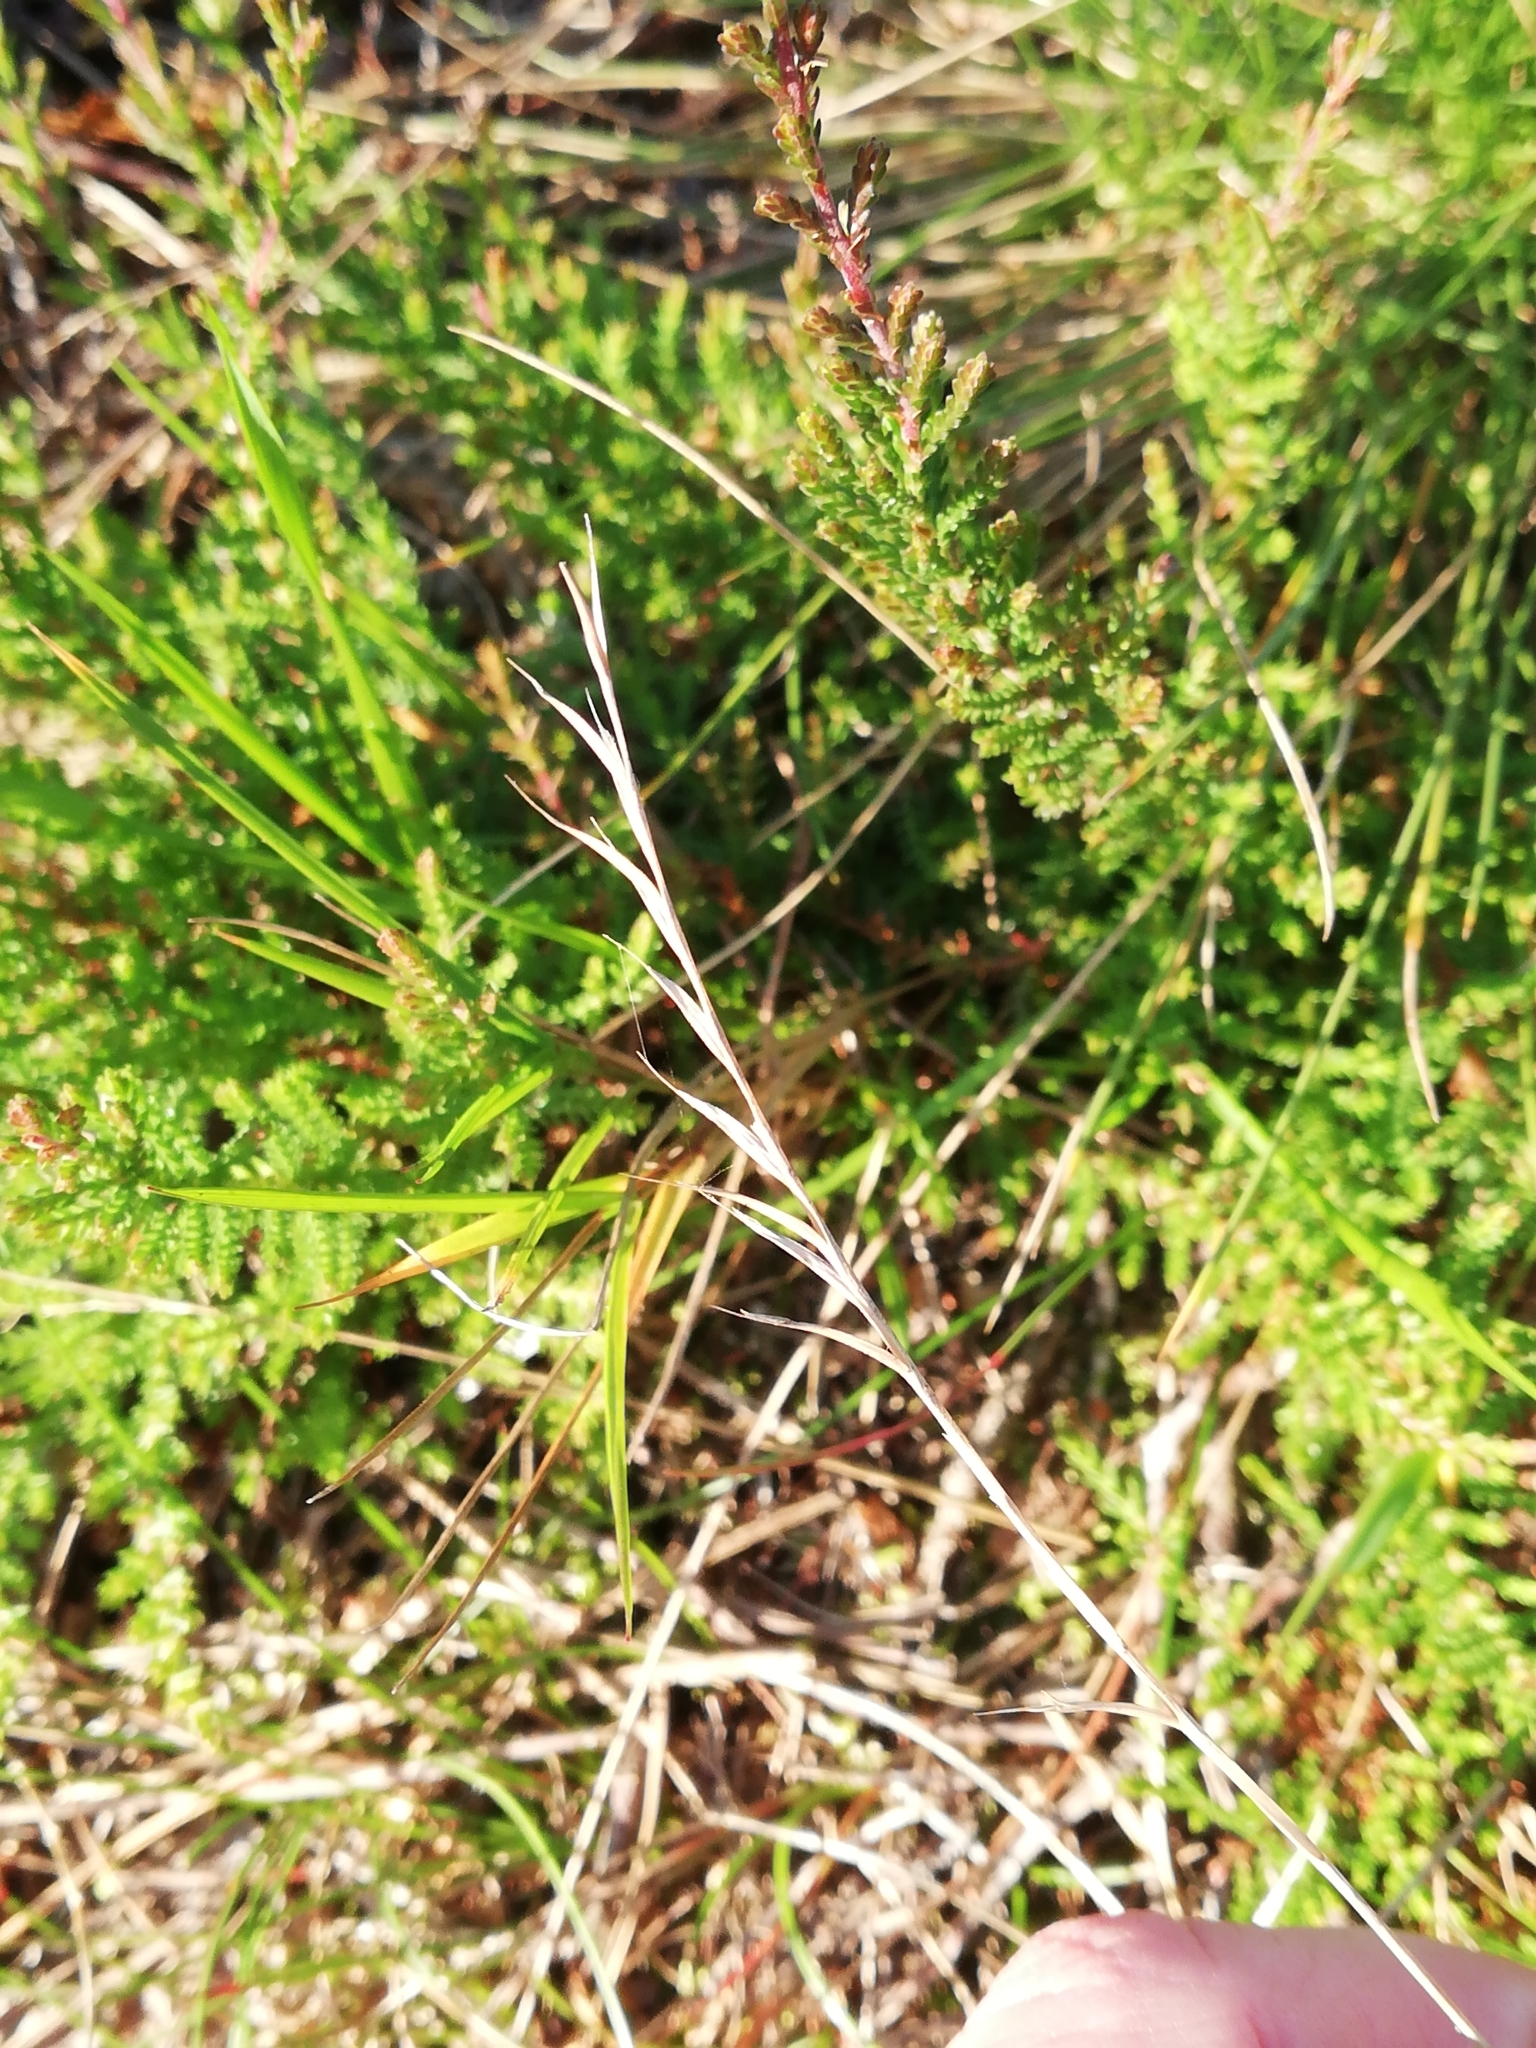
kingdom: Plantae
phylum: Tracheophyta
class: Liliopsida
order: Poales
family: Poaceae
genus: Nardus
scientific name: Nardus stricta
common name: Mat-grass
